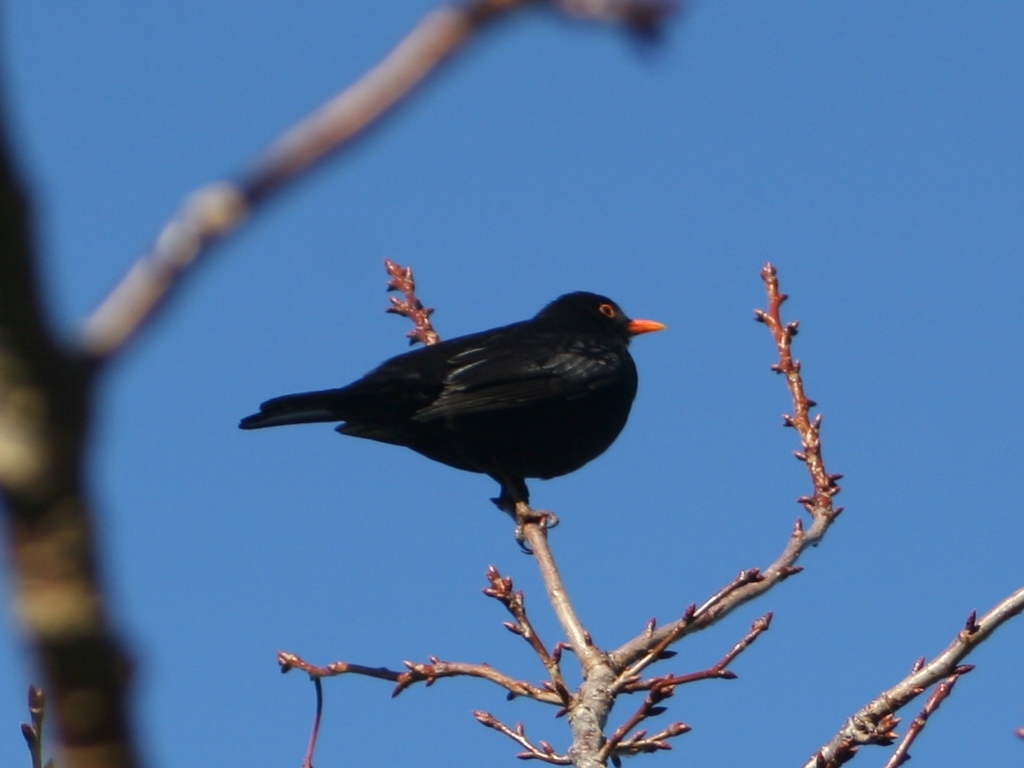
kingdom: Animalia
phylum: Chordata
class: Aves
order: Passeriformes
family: Turdidae
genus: Turdus
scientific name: Turdus merula
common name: Common blackbird
